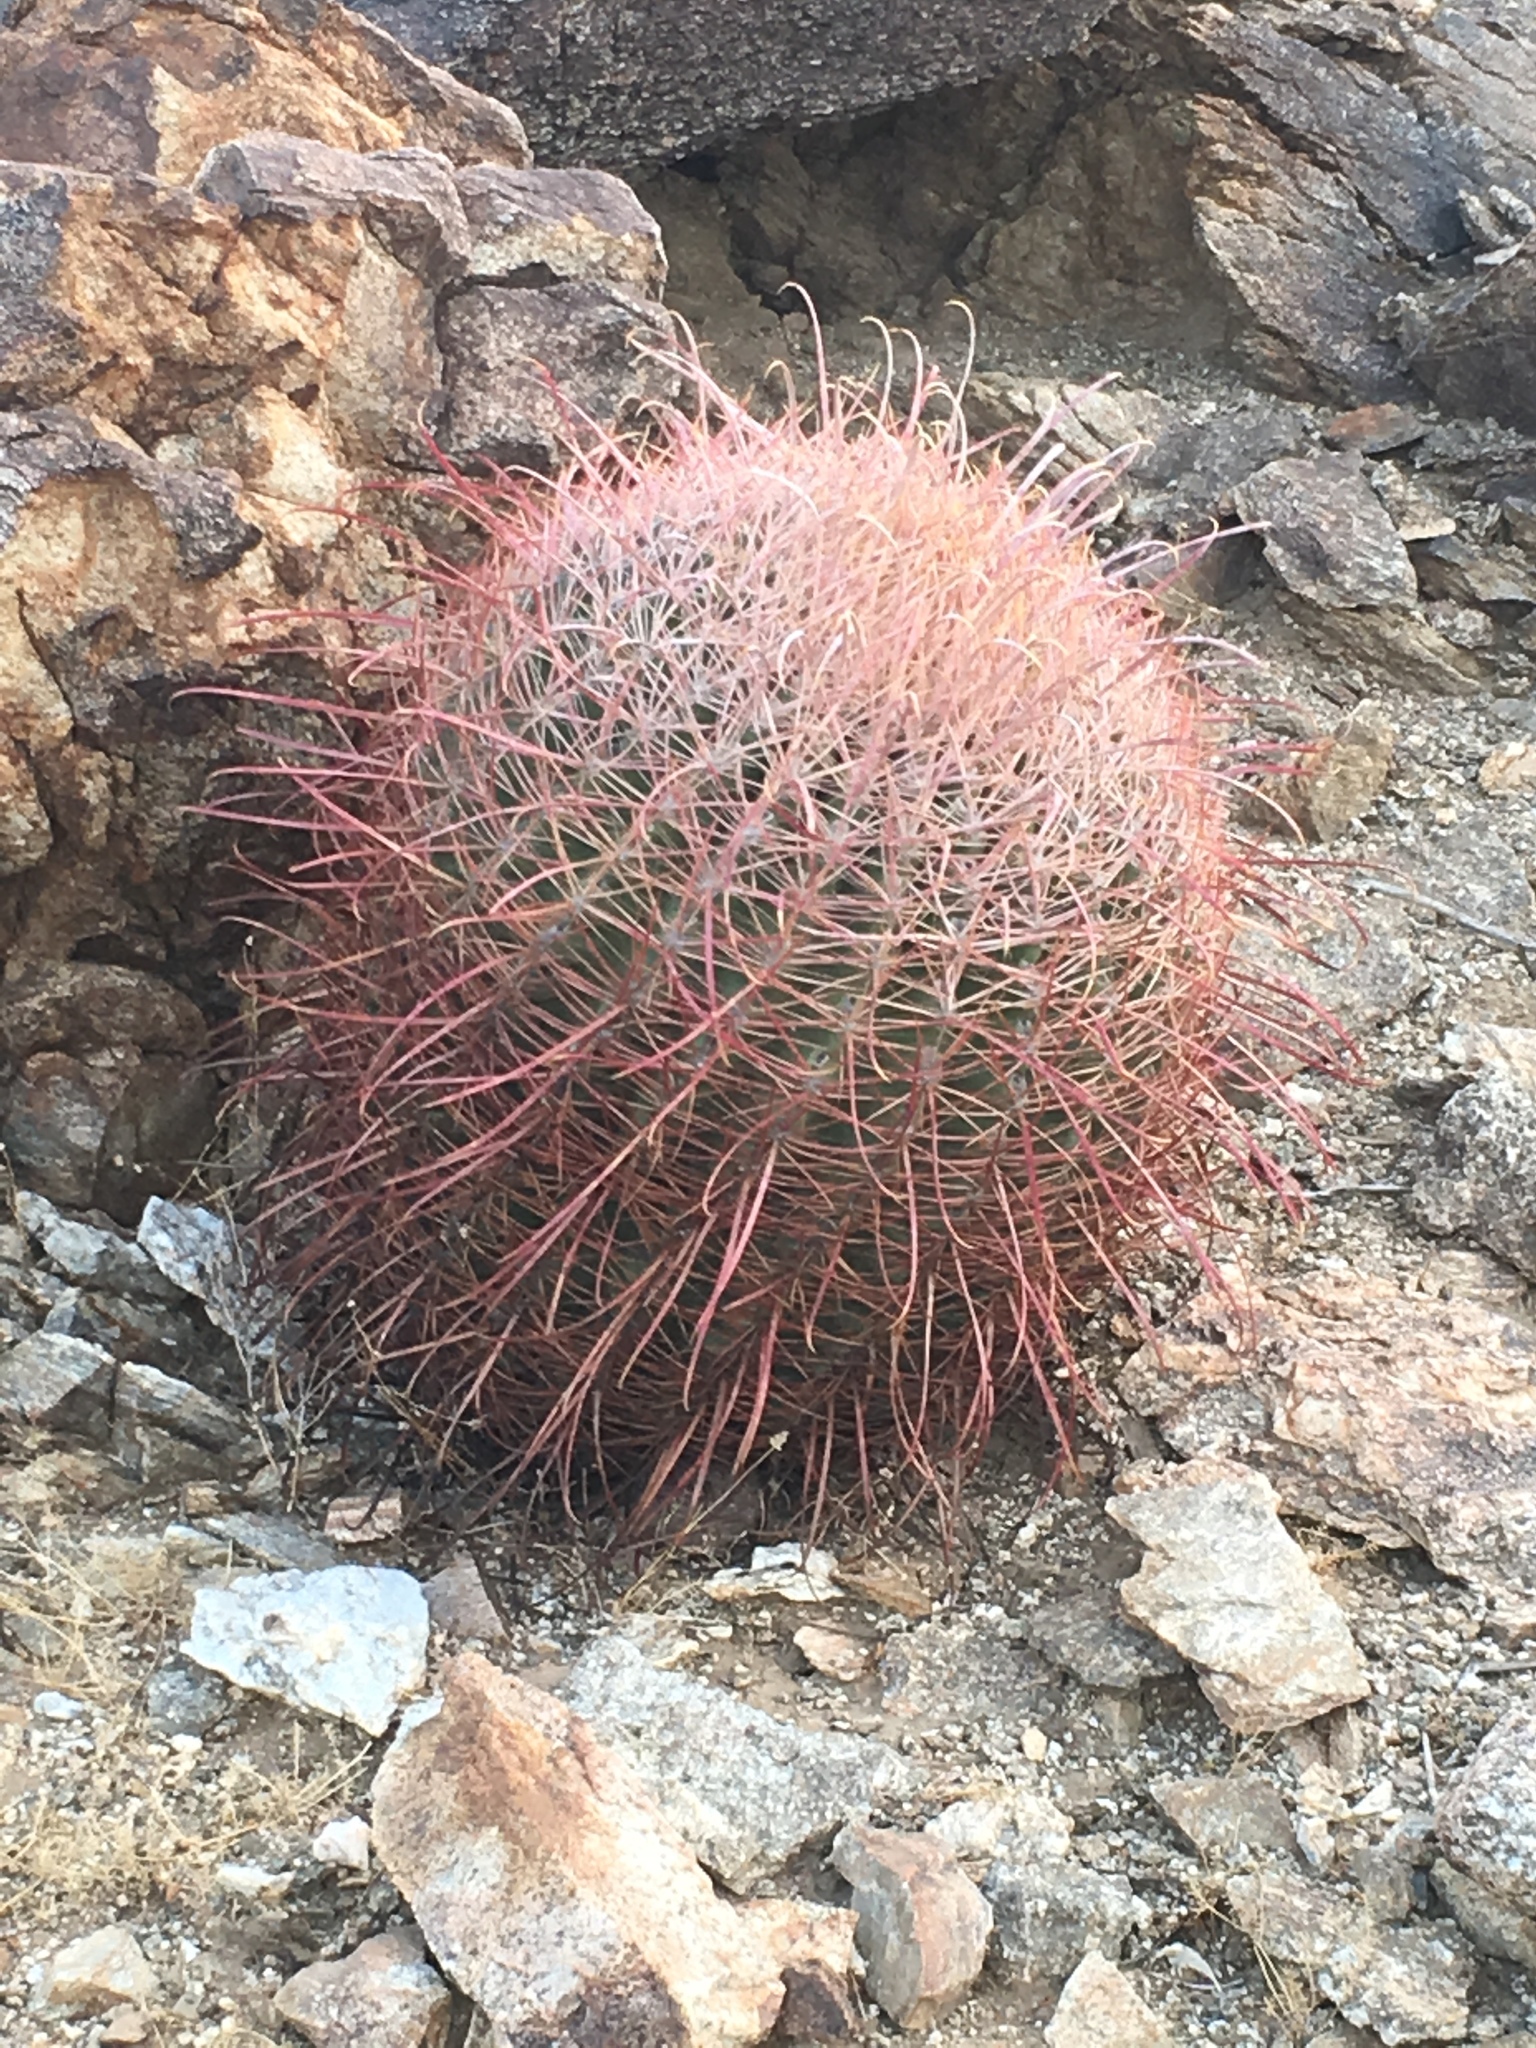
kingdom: Plantae
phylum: Tracheophyta
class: Magnoliopsida
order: Caryophyllales
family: Cactaceae
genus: Ferocactus
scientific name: Ferocactus cylindraceus
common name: California barrel cactus
